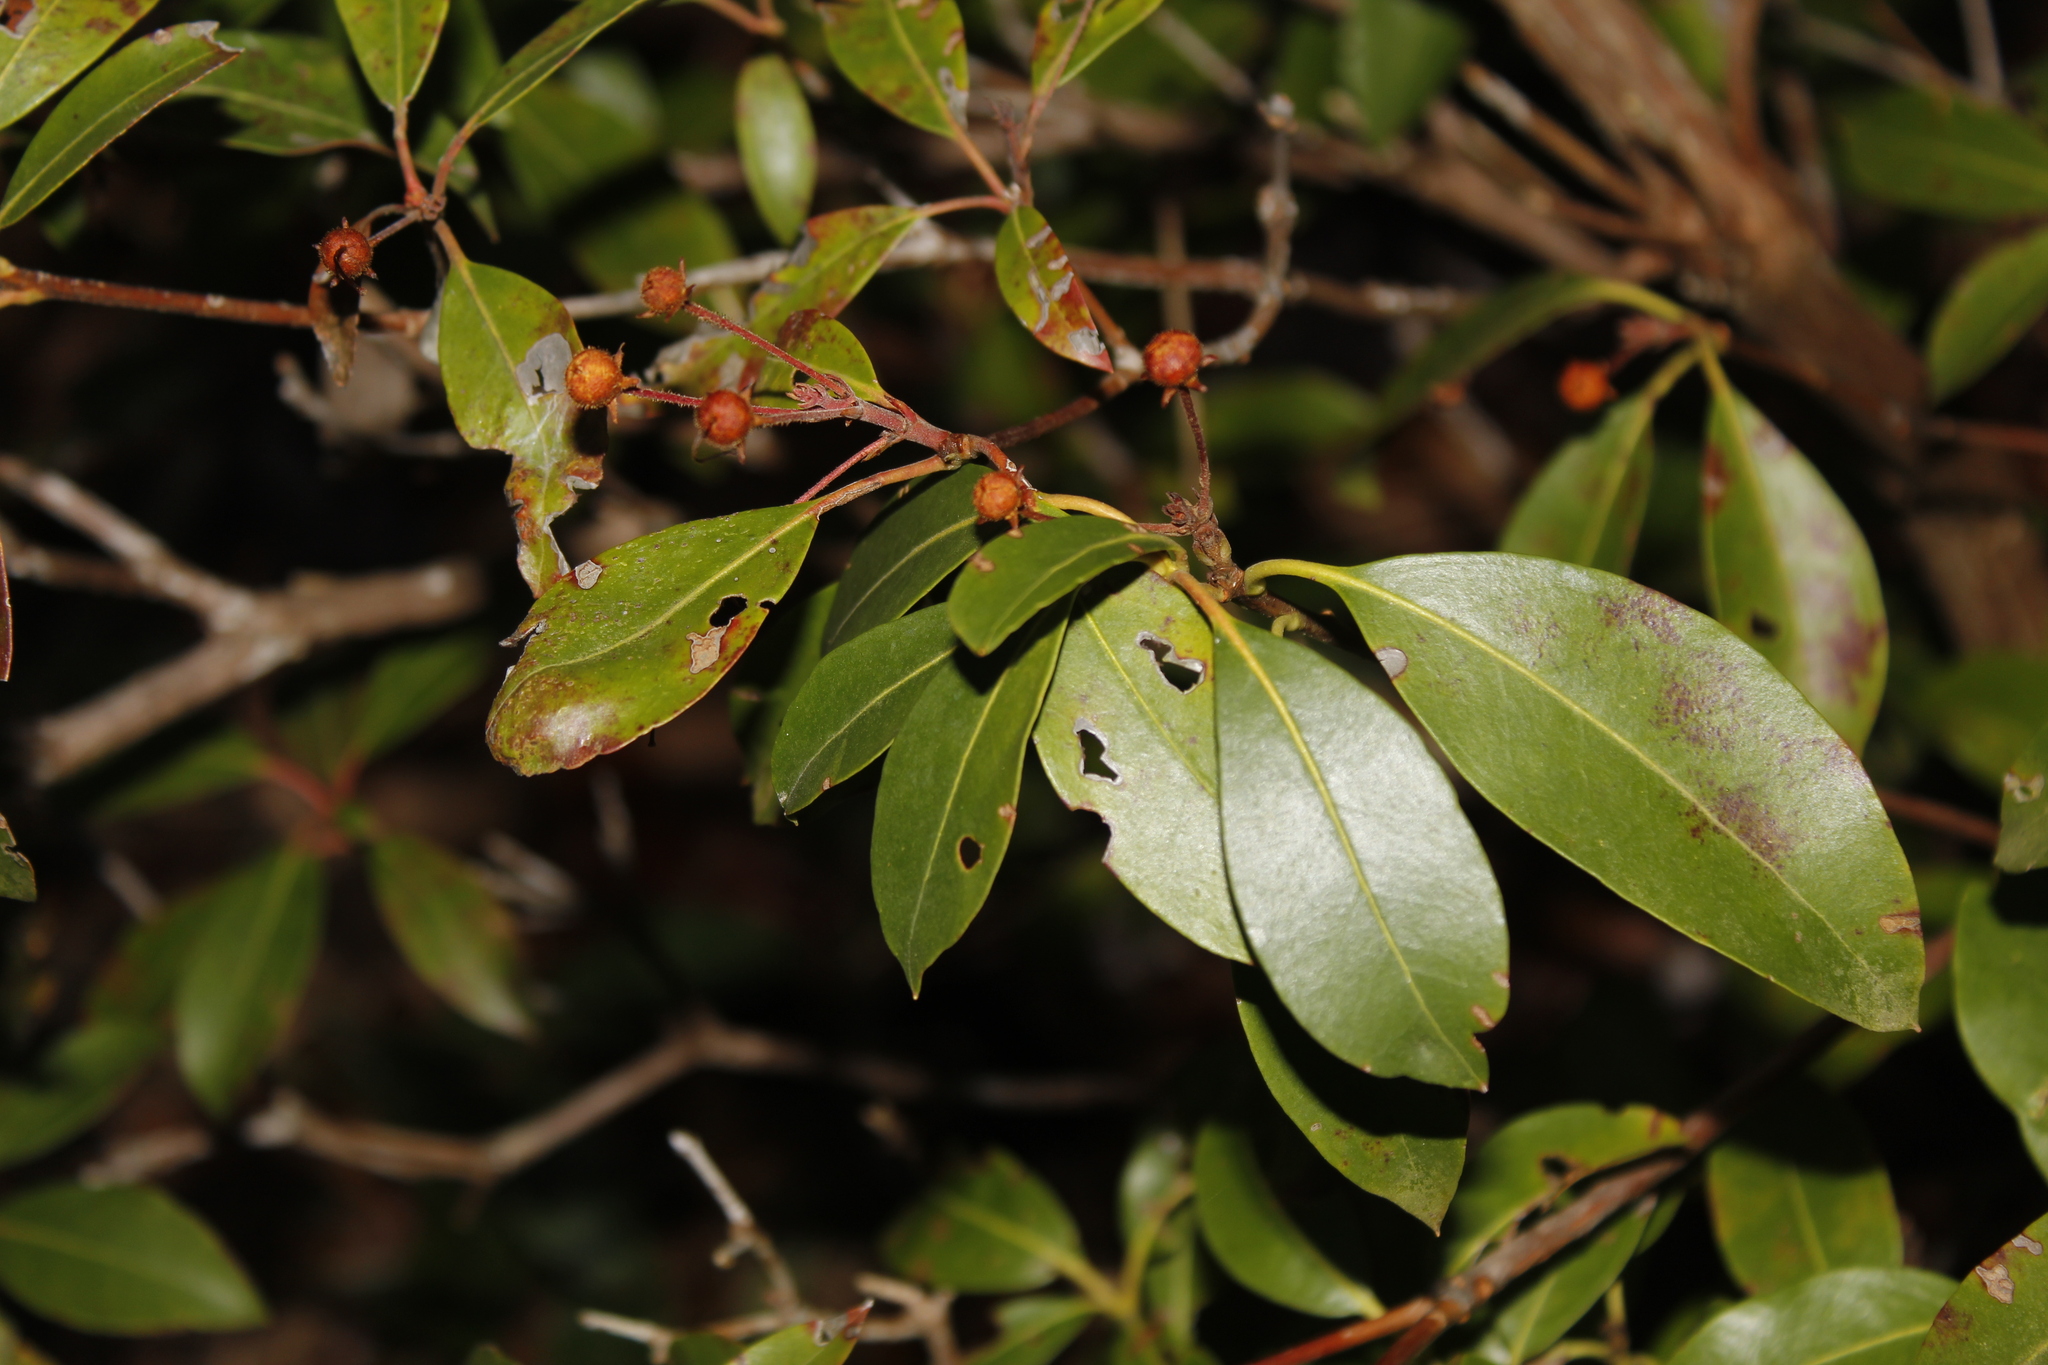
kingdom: Plantae
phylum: Tracheophyta
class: Magnoliopsida
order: Ericales
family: Ericaceae
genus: Kalmia
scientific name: Kalmia latifolia
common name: Mountain-laurel
